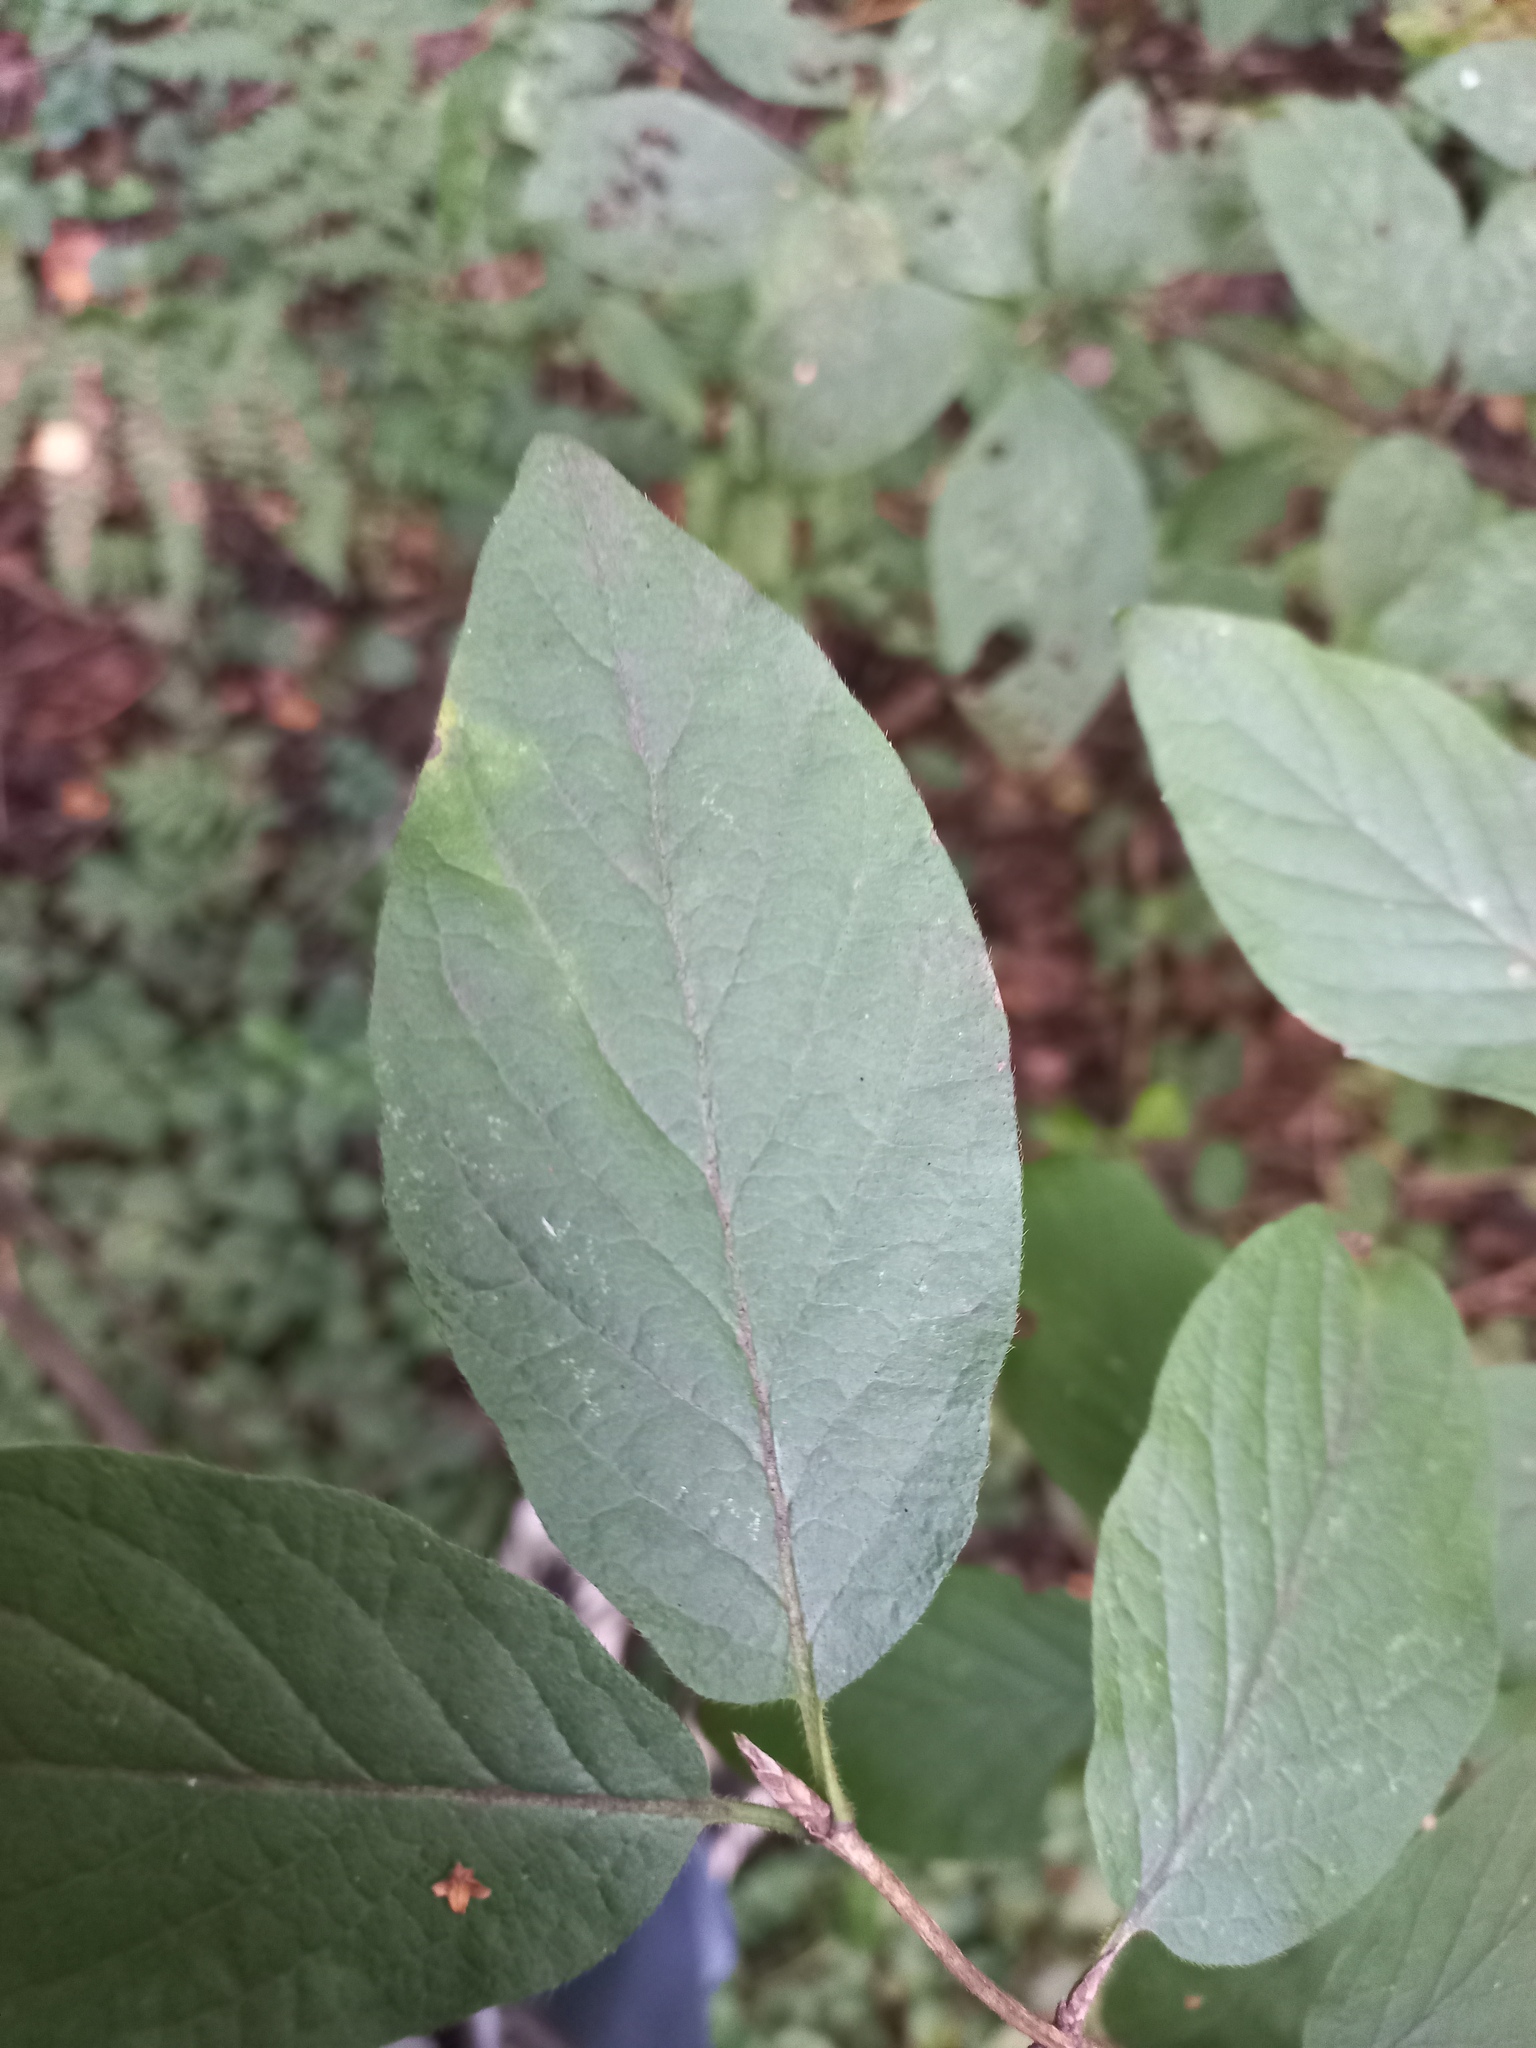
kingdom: Plantae
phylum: Tracheophyta
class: Magnoliopsida
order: Dipsacales
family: Caprifoliaceae
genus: Lonicera
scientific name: Lonicera xylosteum
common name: Fly honeysuckle
